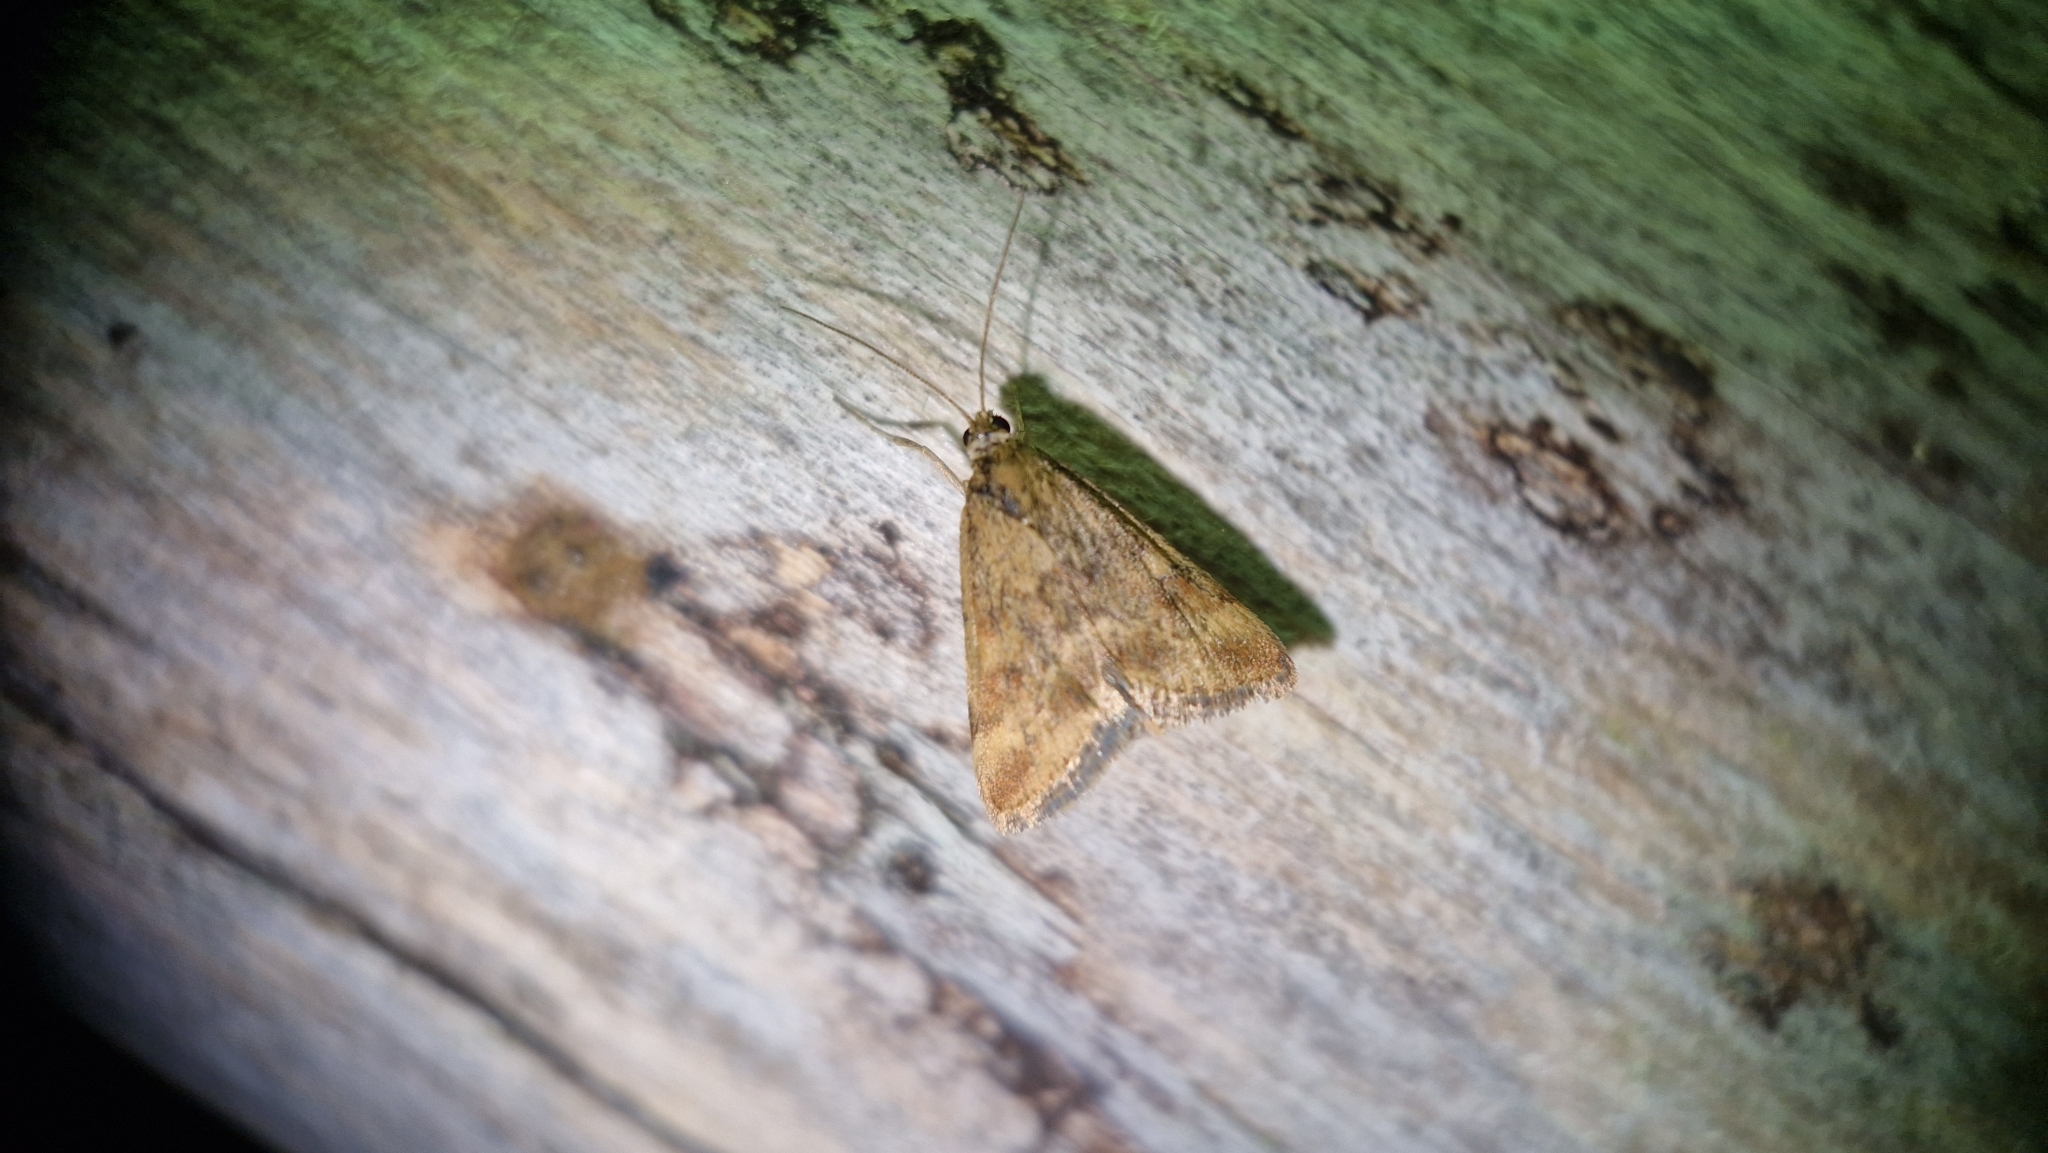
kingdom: Animalia
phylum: Arthropoda
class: Insecta
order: Lepidoptera
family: Crambidae
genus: Pyrausta
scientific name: Pyrausta despicata
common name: Straw-barred pearl
